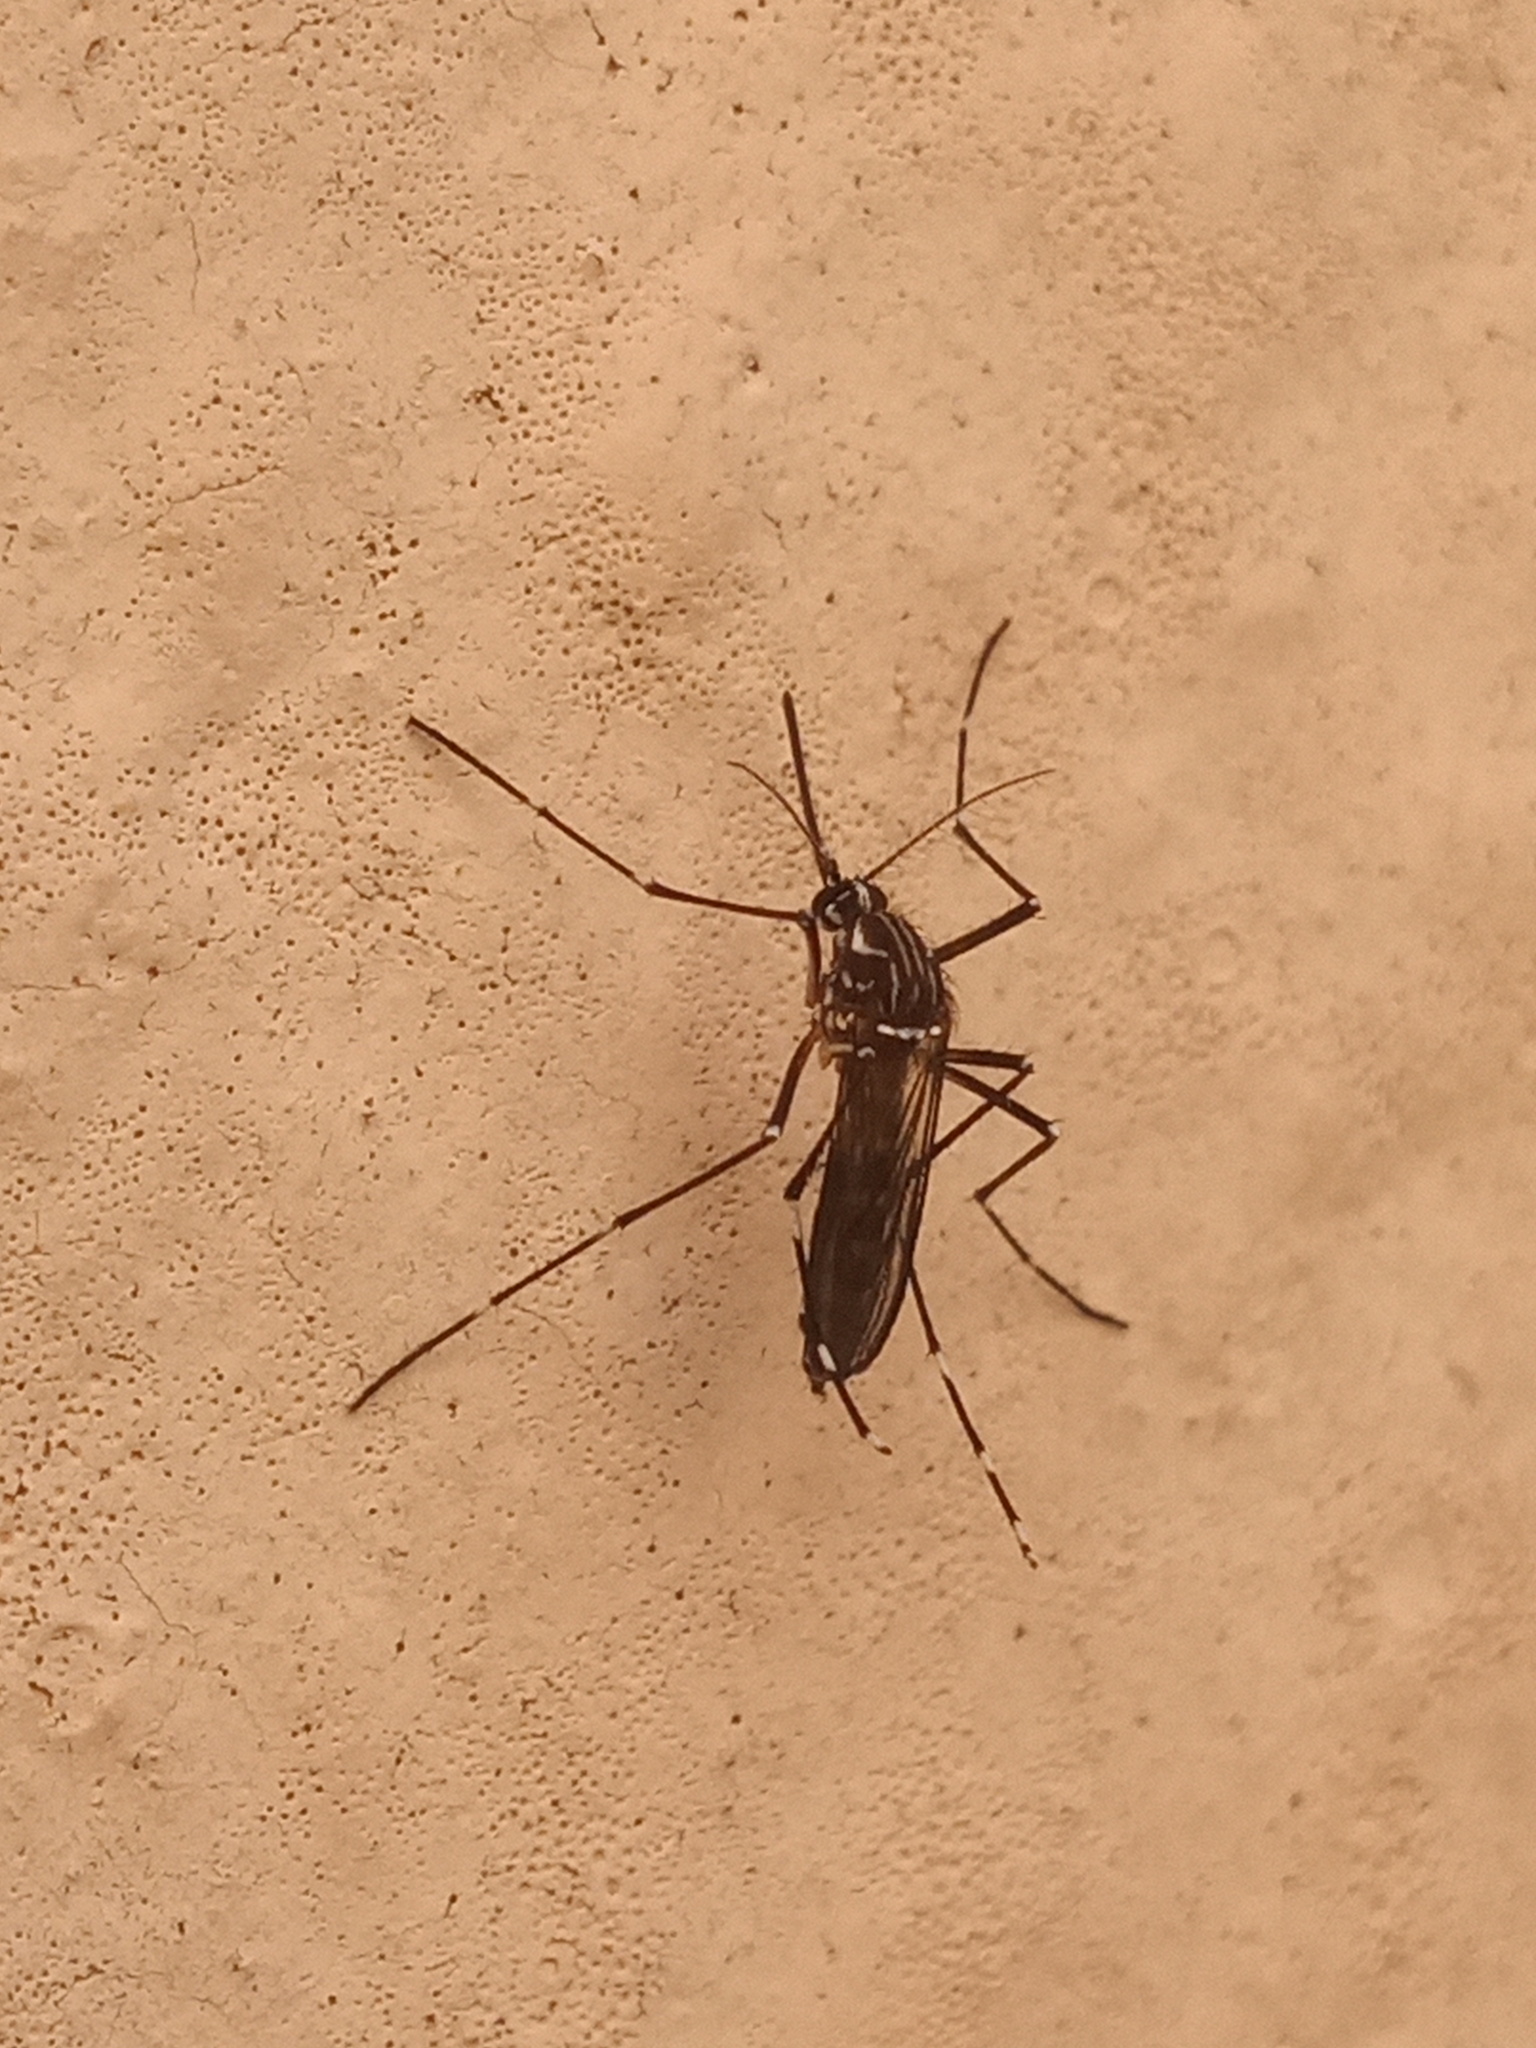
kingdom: Animalia
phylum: Arthropoda
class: Insecta
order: Diptera
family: Culicidae
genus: Aedes
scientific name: Aedes aegypti
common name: Yellow fever mosquito
